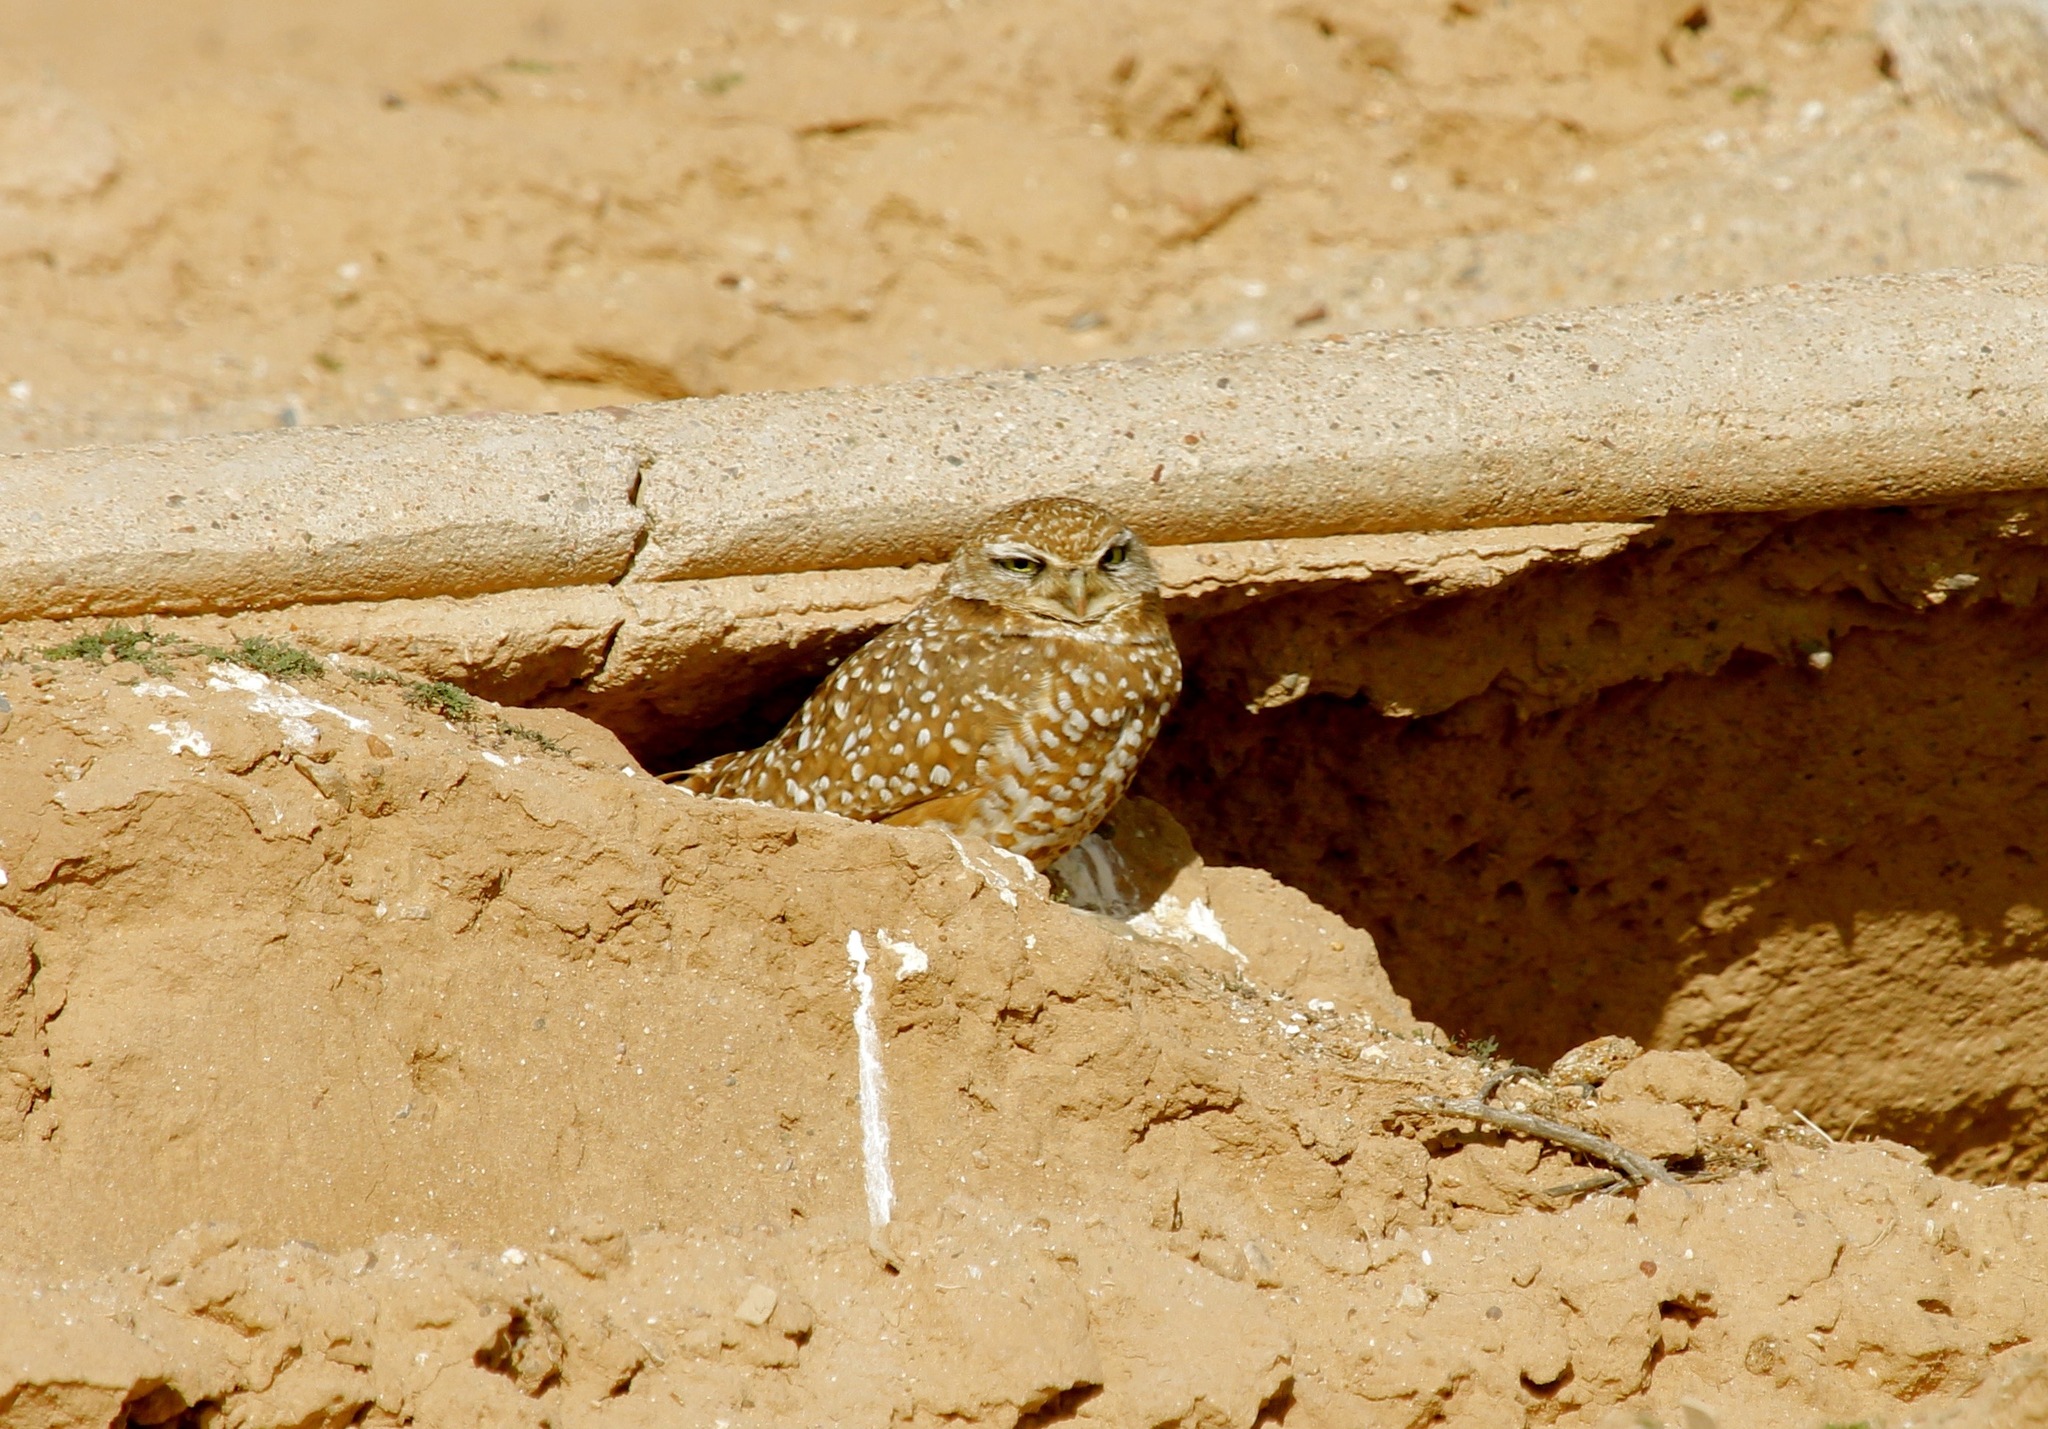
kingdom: Animalia
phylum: Chordata
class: Aves
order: Strigiformes
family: Strigidae
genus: Athene
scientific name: Athene cunicularia
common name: Burrowing owl
